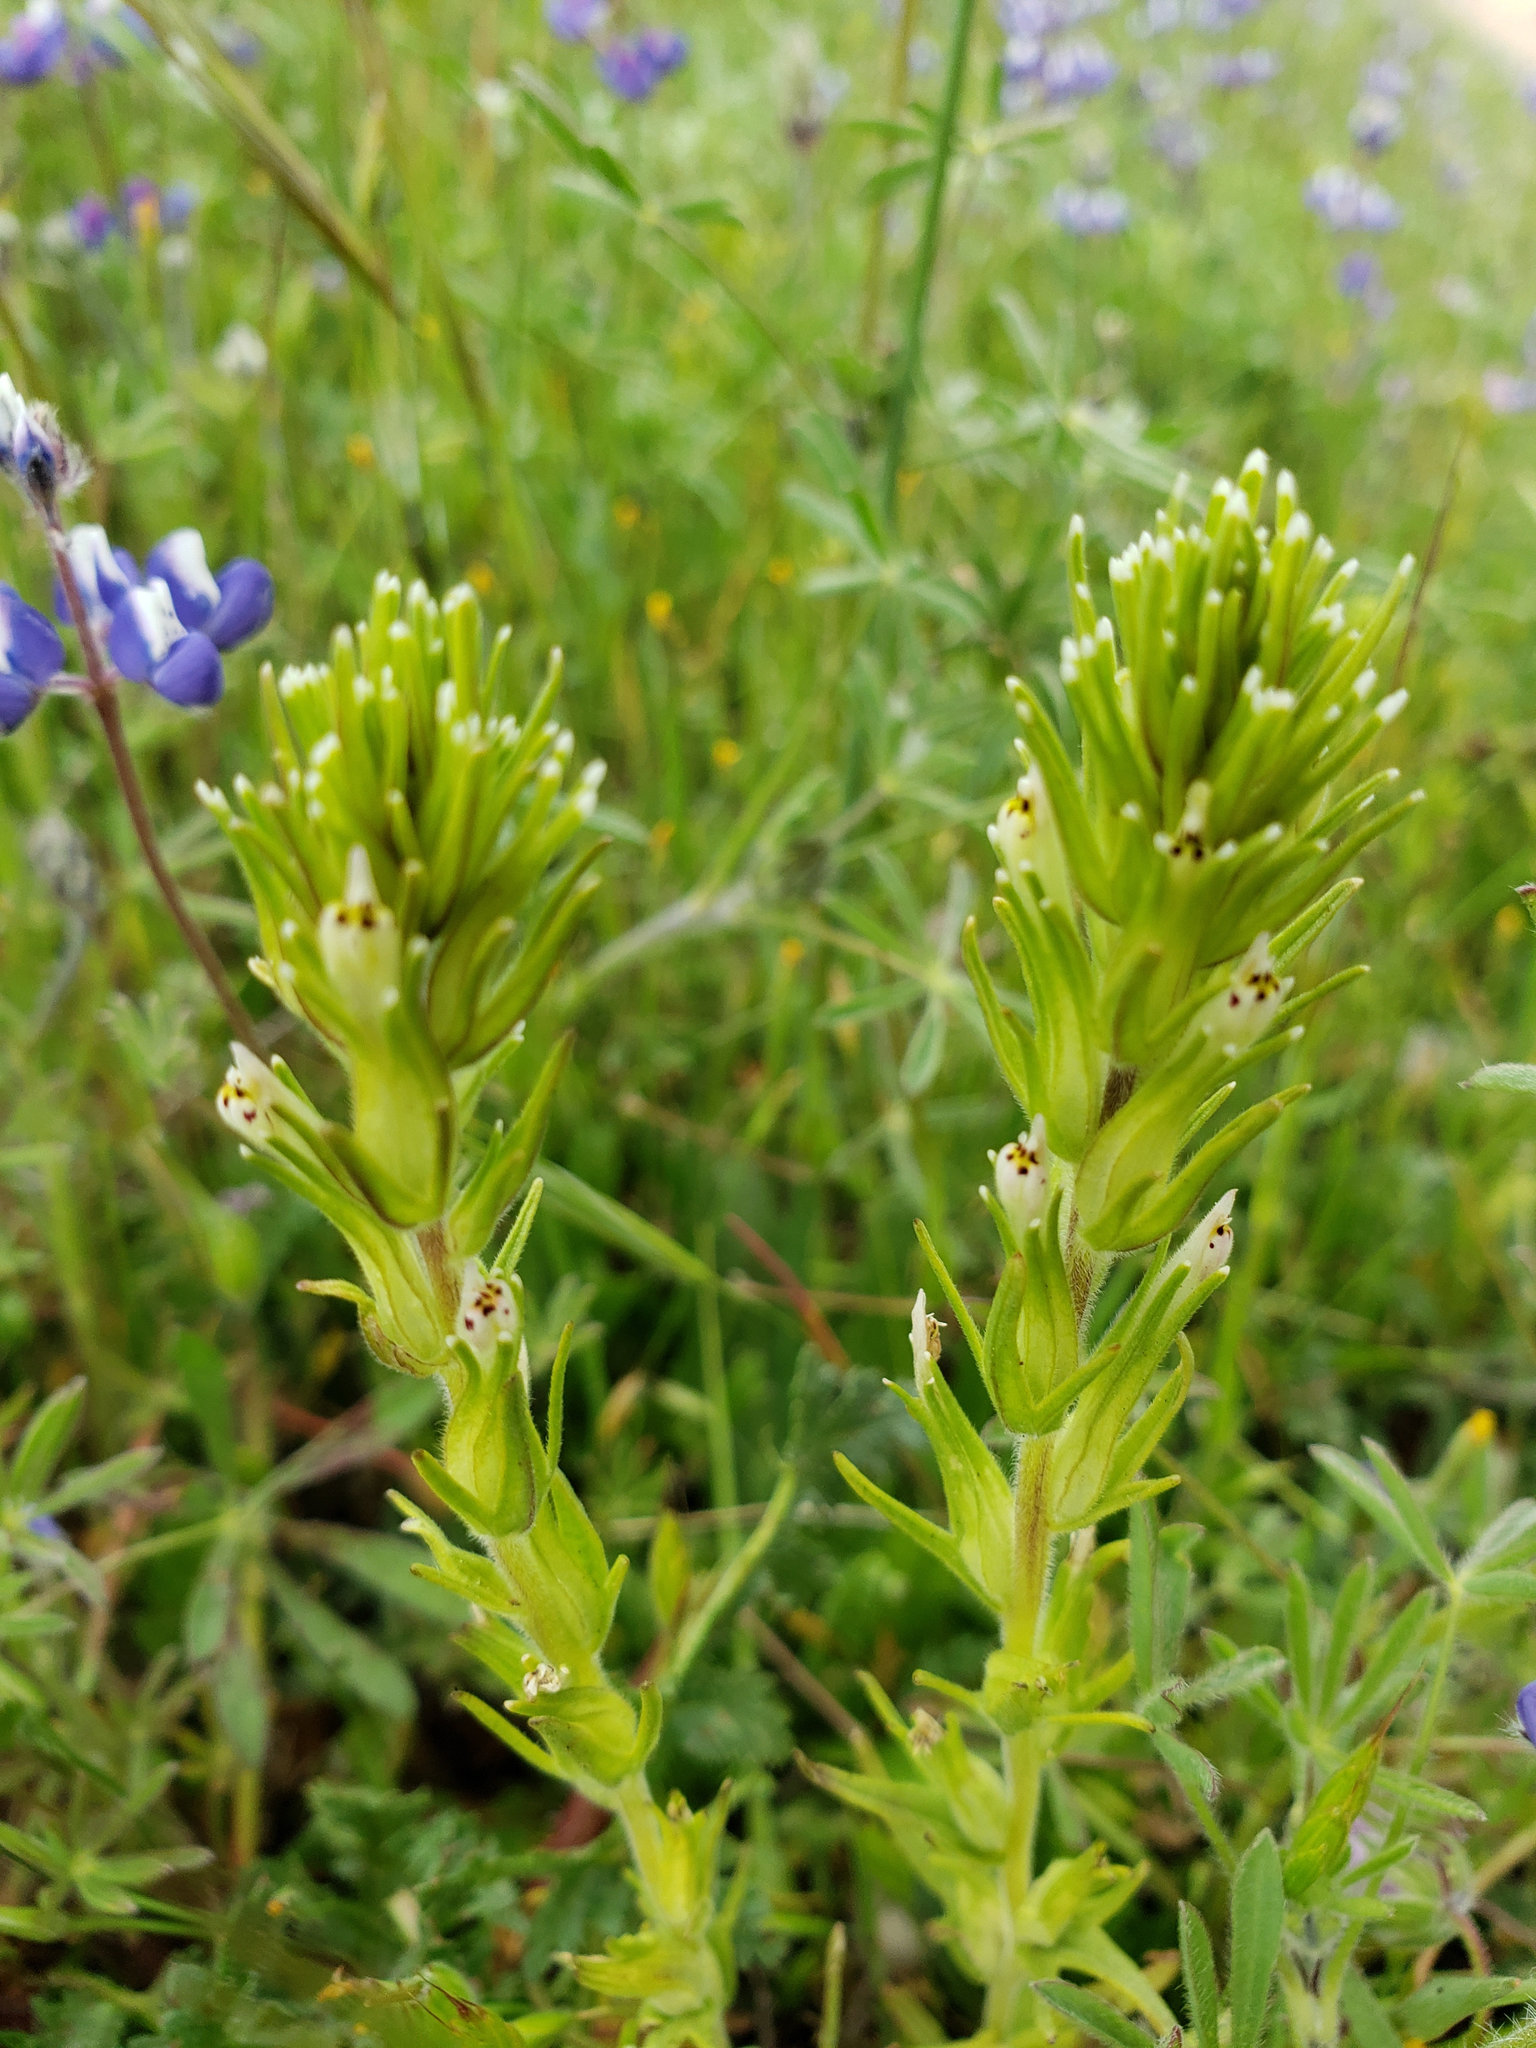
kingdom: Plantae
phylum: Tracheophyta
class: Magnoliopsida
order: Lamiales
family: Orobanchaceae
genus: Castilleja
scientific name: Castilleja attenuata
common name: Valley tassels
